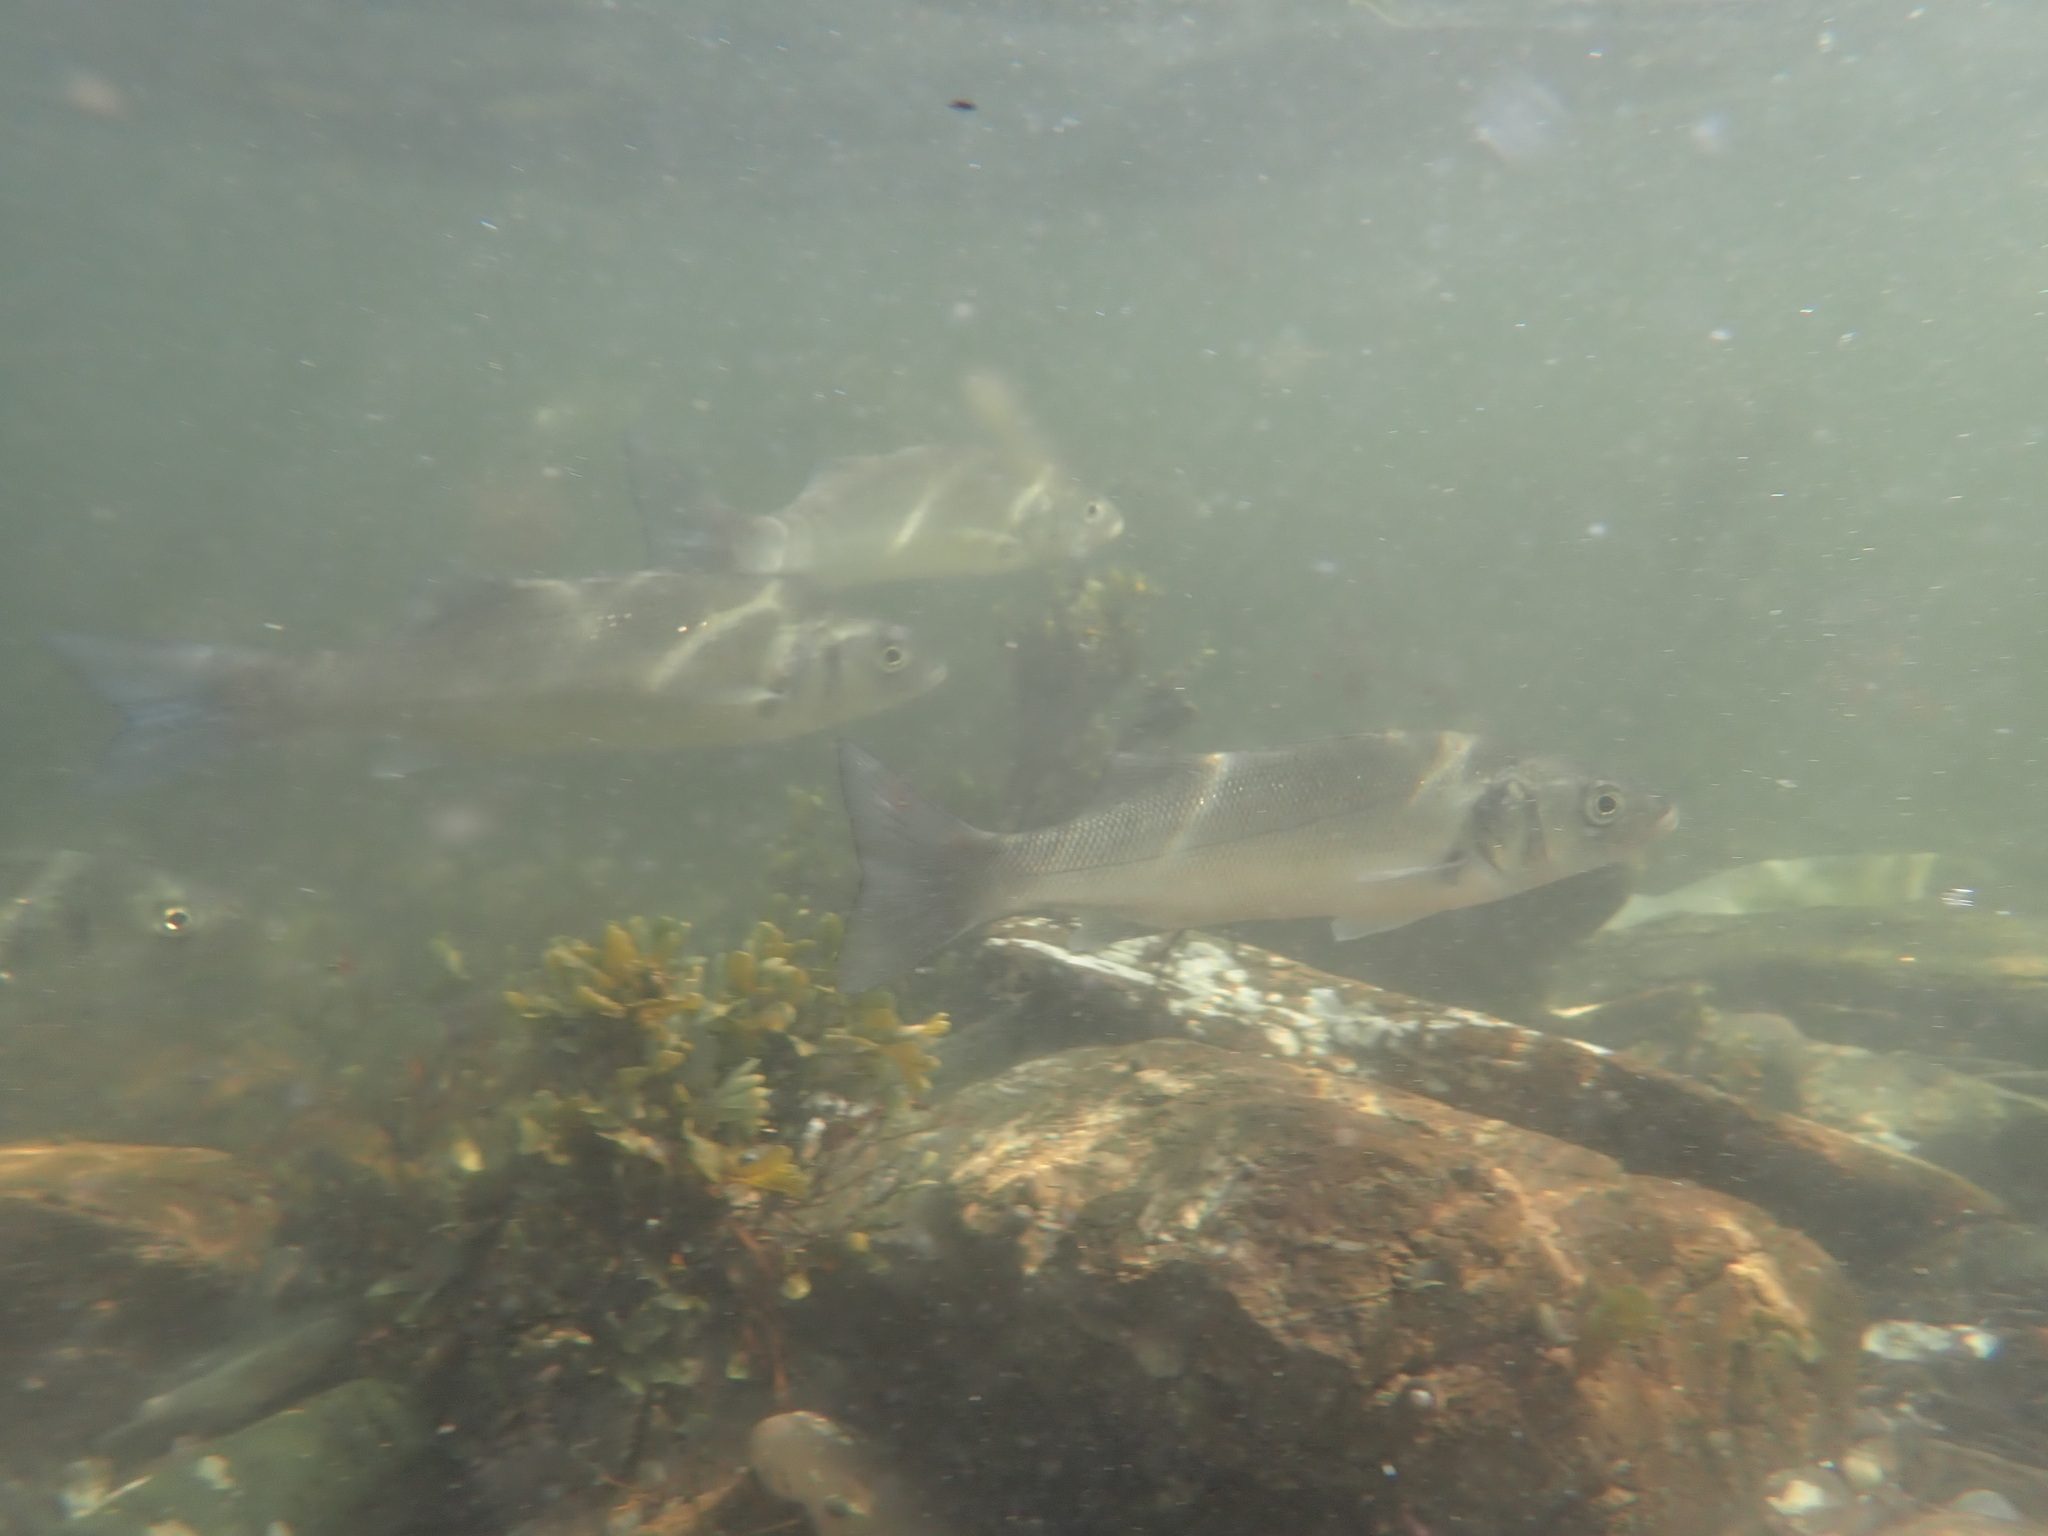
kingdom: Animalia
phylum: Chordata
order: Perciformes
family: Moronidae
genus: Dicentrarchus
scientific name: Dicentrarchus labrax
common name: European seabass
